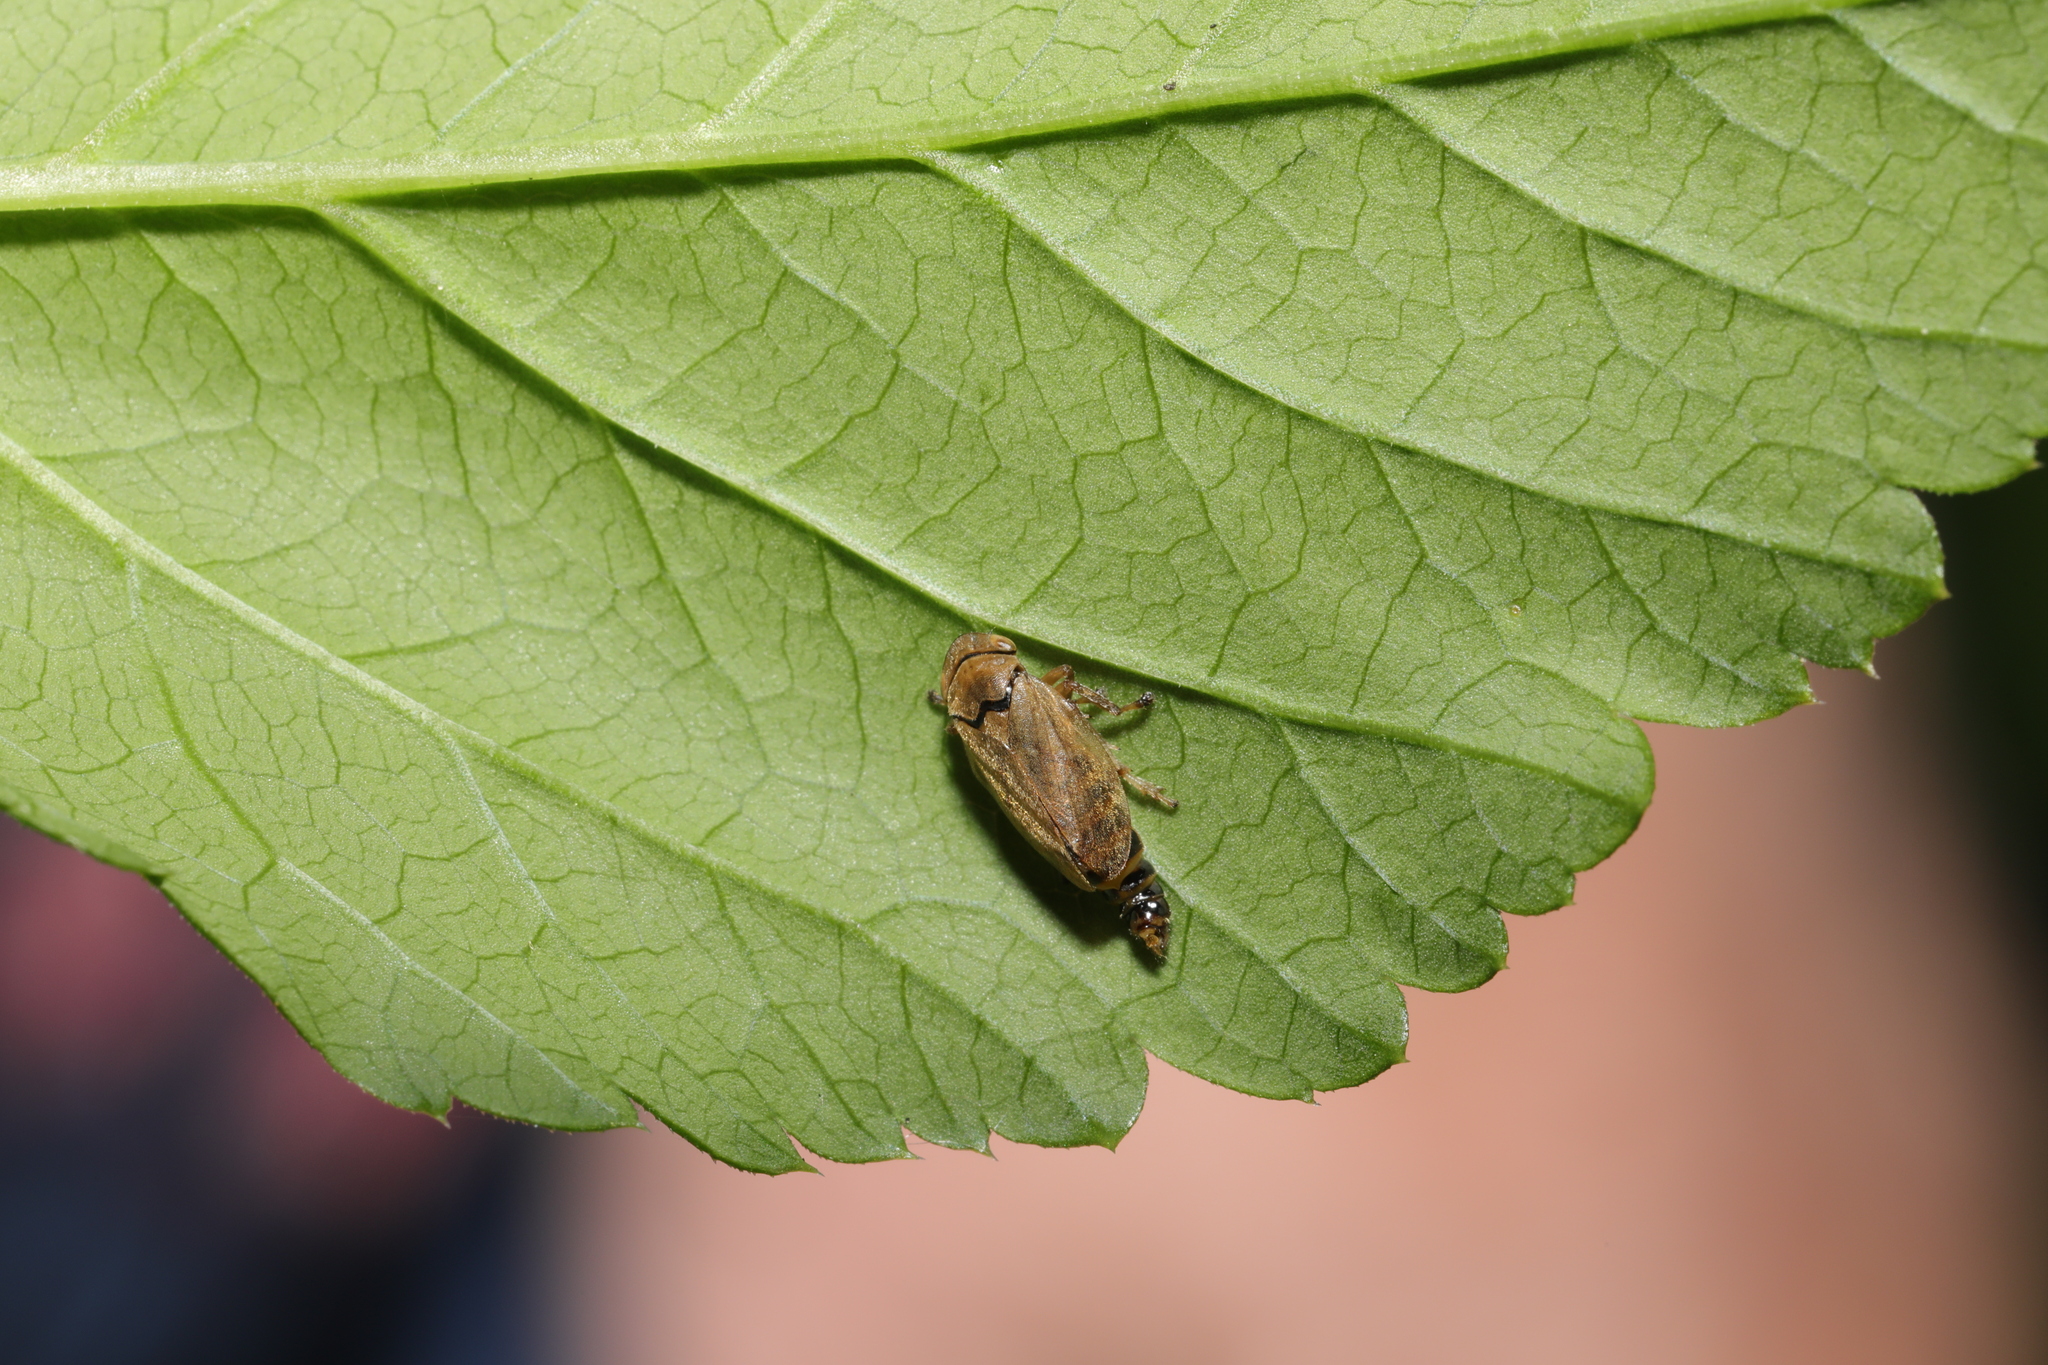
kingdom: Animalia
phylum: Arthropoda
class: Insecta
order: Hemiptera
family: Aphrophoridae
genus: Philaenus
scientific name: Philaenus spumarius
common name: Meadow spittlebug
